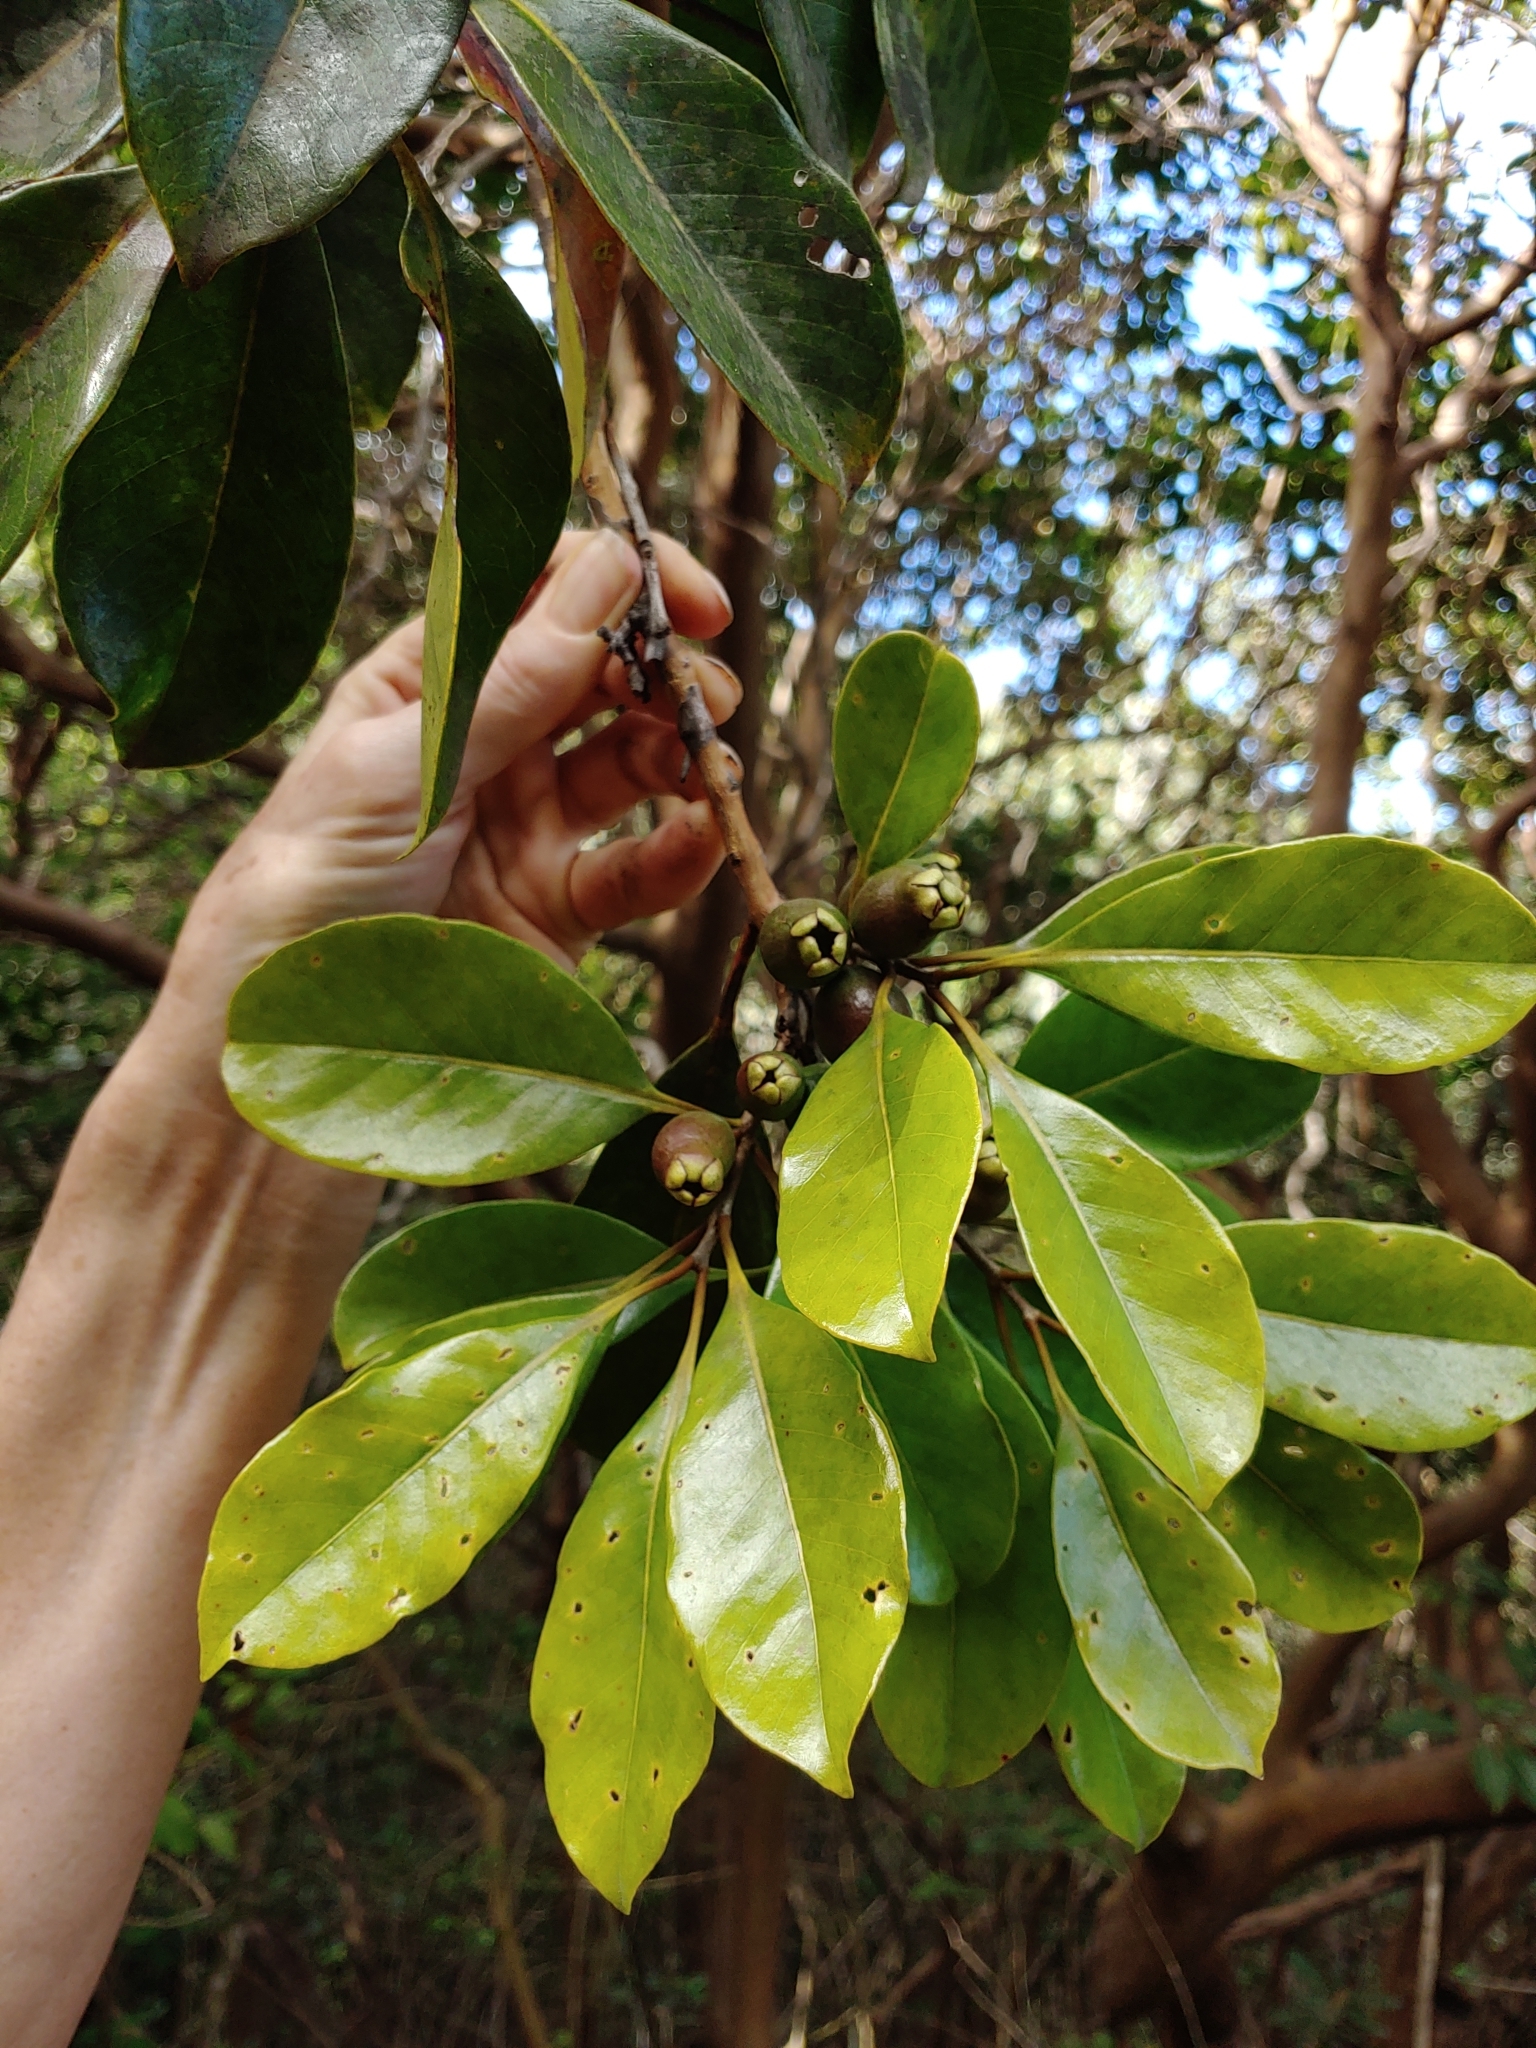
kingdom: Plantae
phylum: Tracheophyta
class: Magnoliopsida
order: Myrtales
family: Myrtaceae
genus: Psidium
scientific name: Psidium cattleianum
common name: Strawberry guava
